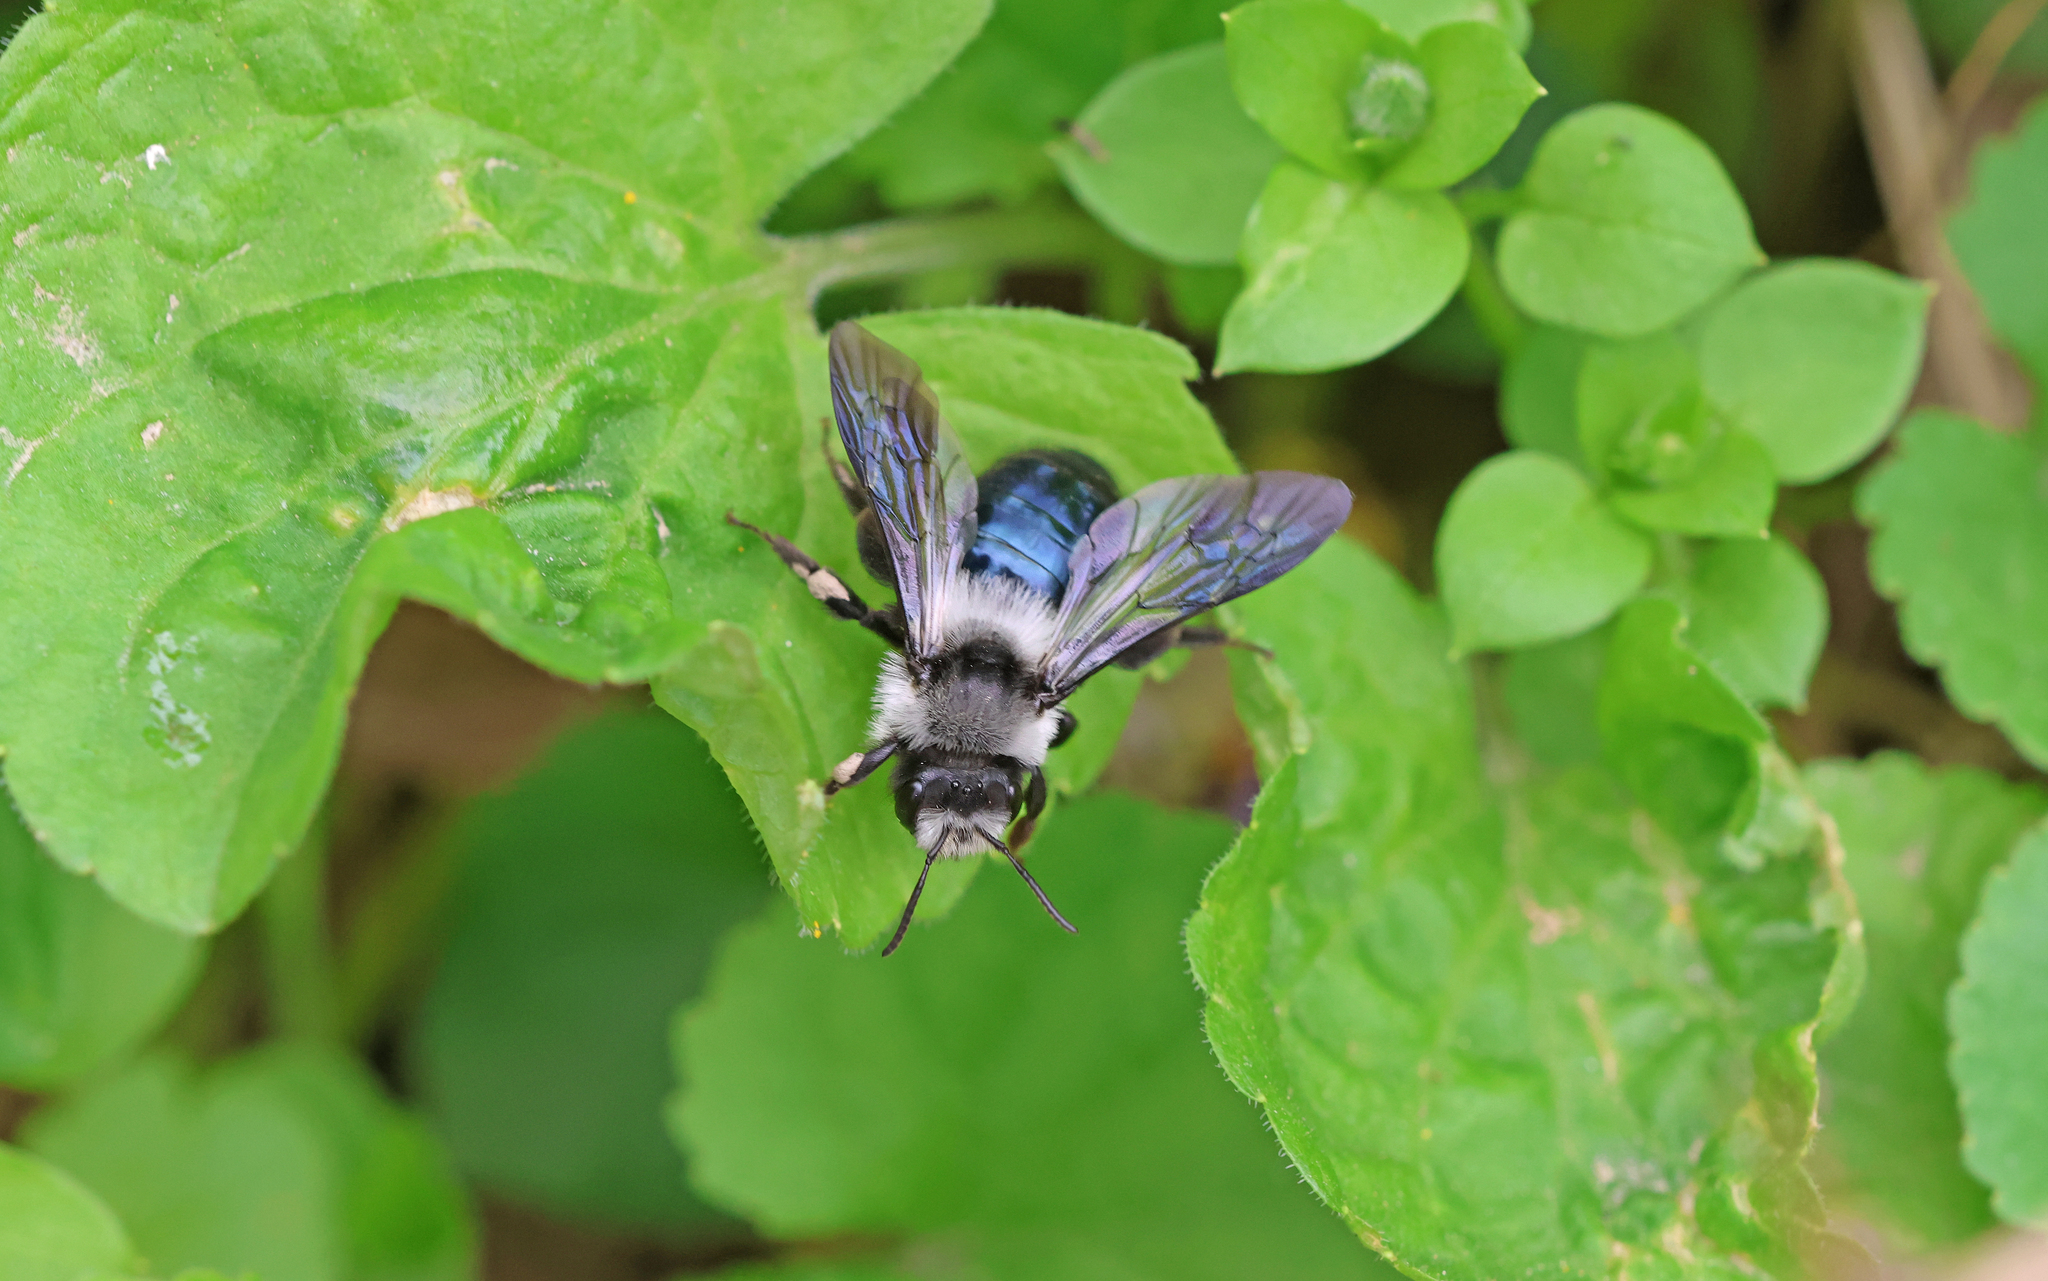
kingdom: Animalia
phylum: Arthropoda
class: Insecta
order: Hymenoptera
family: Andrenidae
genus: Andrena
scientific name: Andrena cineraria
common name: Ashy mining bee
